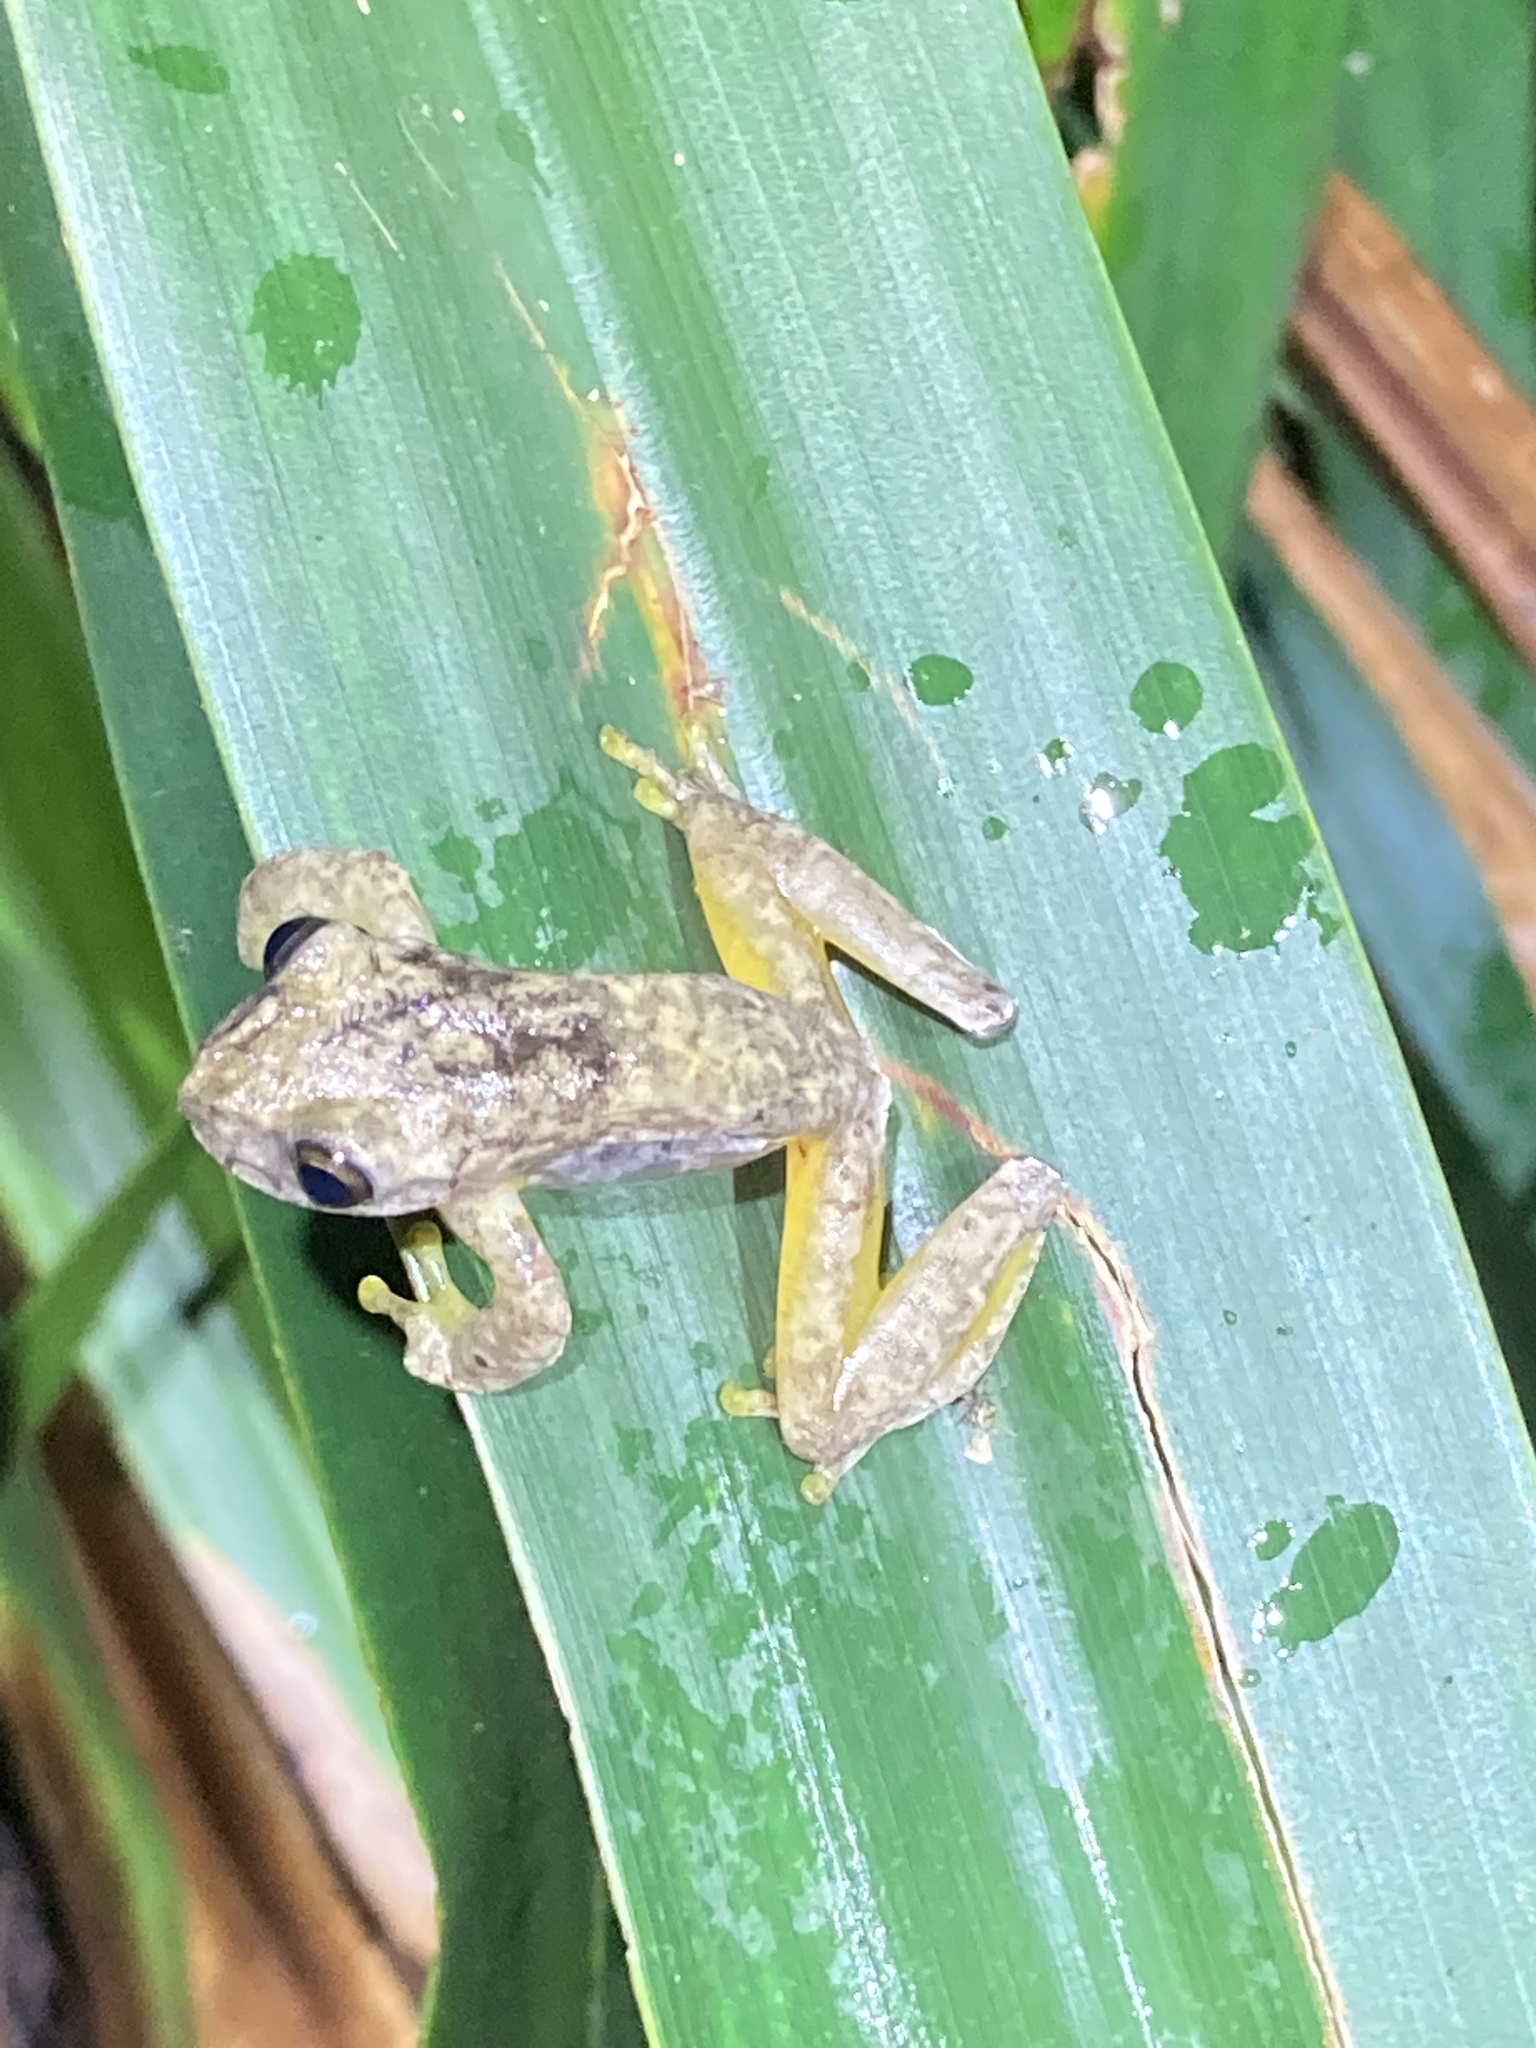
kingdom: Animalia
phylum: Chordata
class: Amphibia
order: Anura
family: Hylidae
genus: Ptychohyla
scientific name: Ptychohyla hypomykter
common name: Copan stream frog
